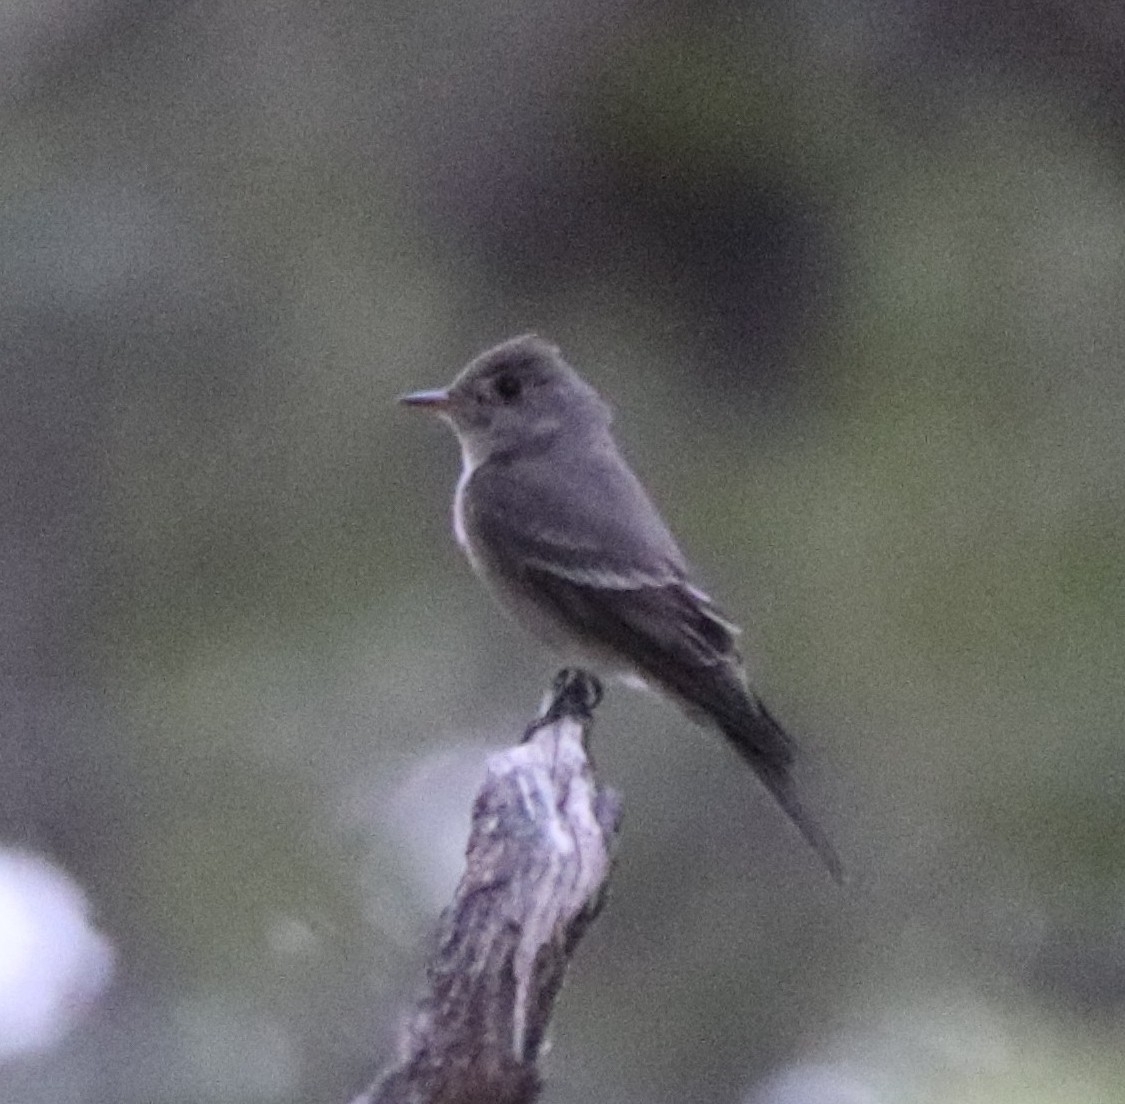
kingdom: Animalia
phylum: Chordata
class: Aves
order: Passeriformes
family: Tyrannidae
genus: Contopus
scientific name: Contopus sordidulus
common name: Western wood-pewee
